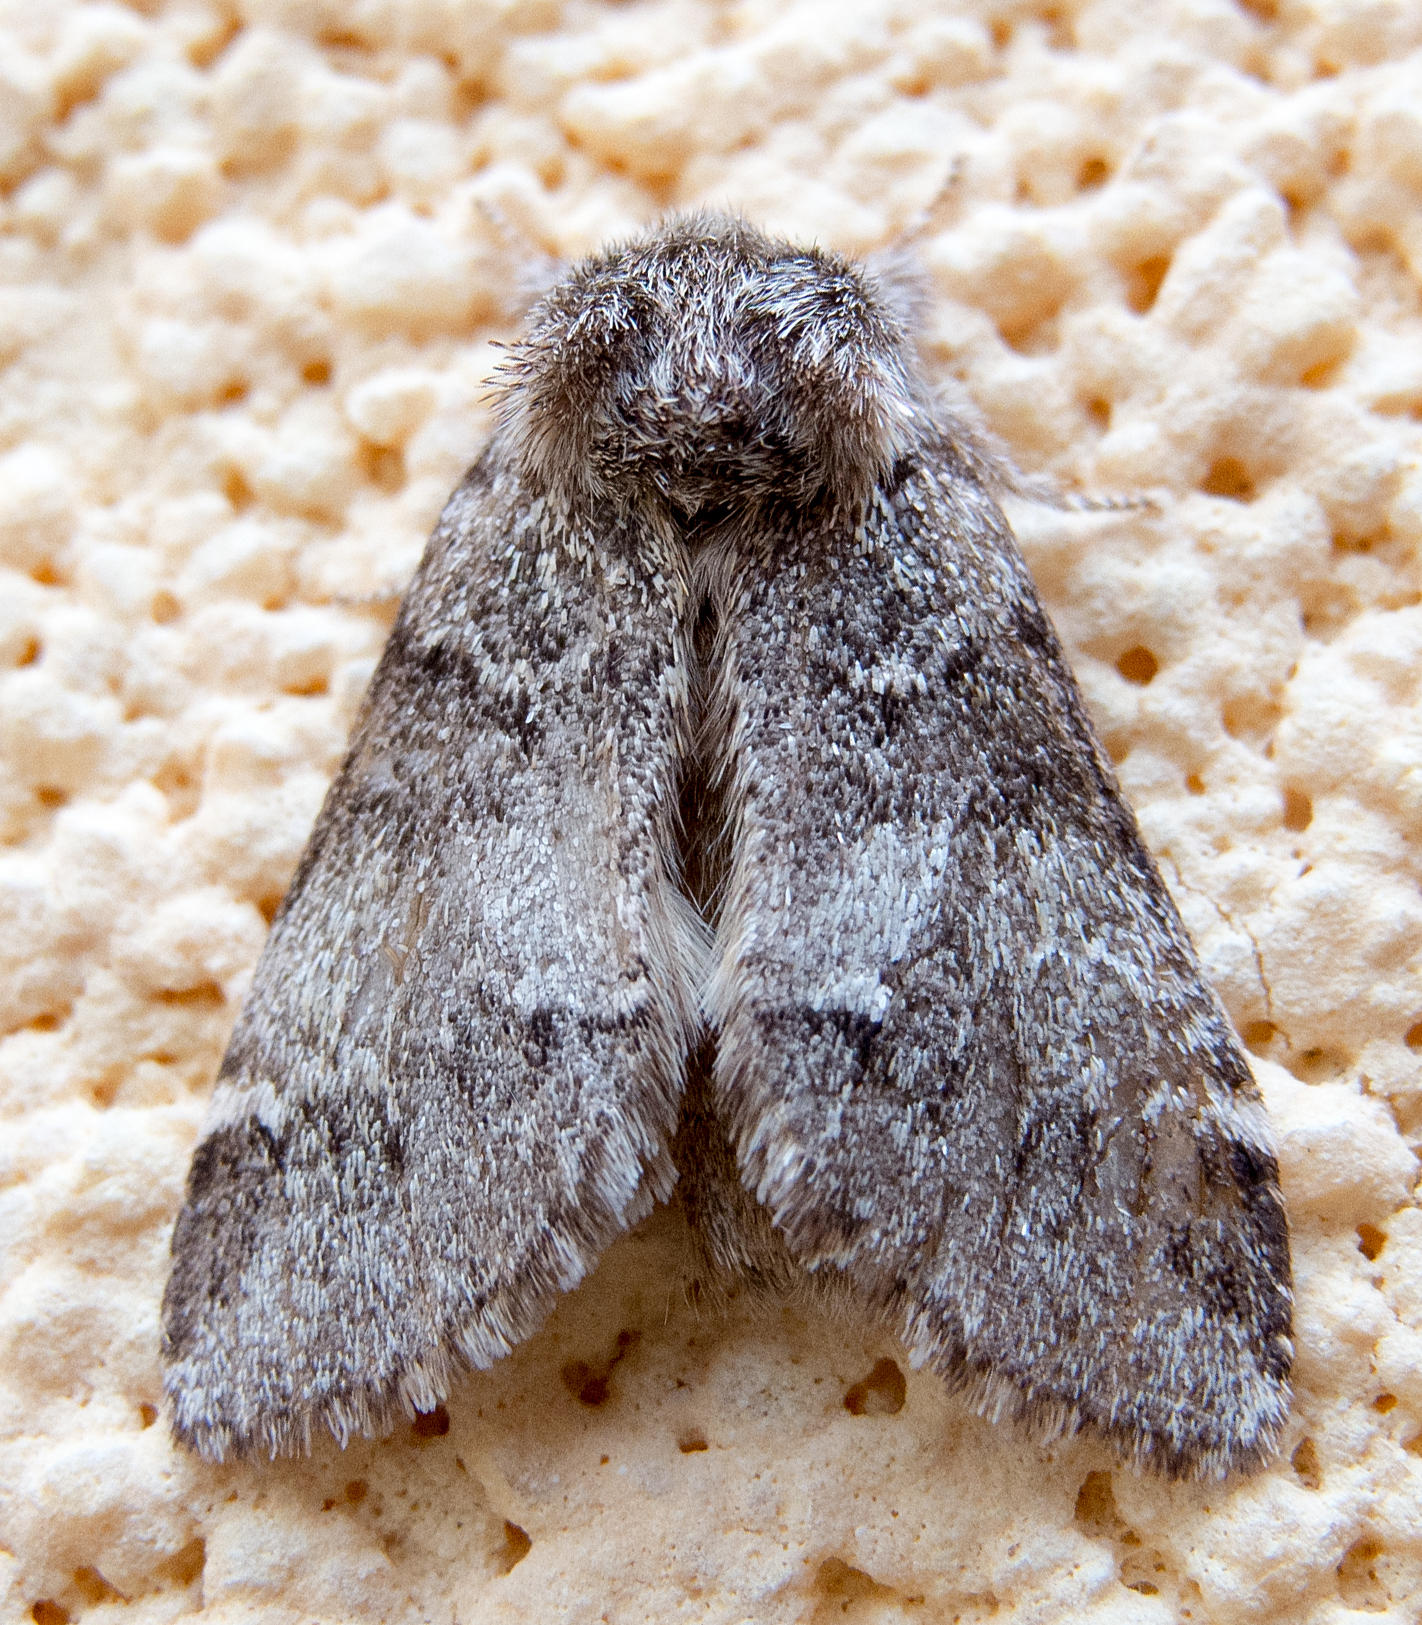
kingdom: Animalia
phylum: Arthropoda
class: Insecta
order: Lepidoptera
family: Notodontidae
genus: Drymonia
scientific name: Drymonia dodonaea
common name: Marbled brown
